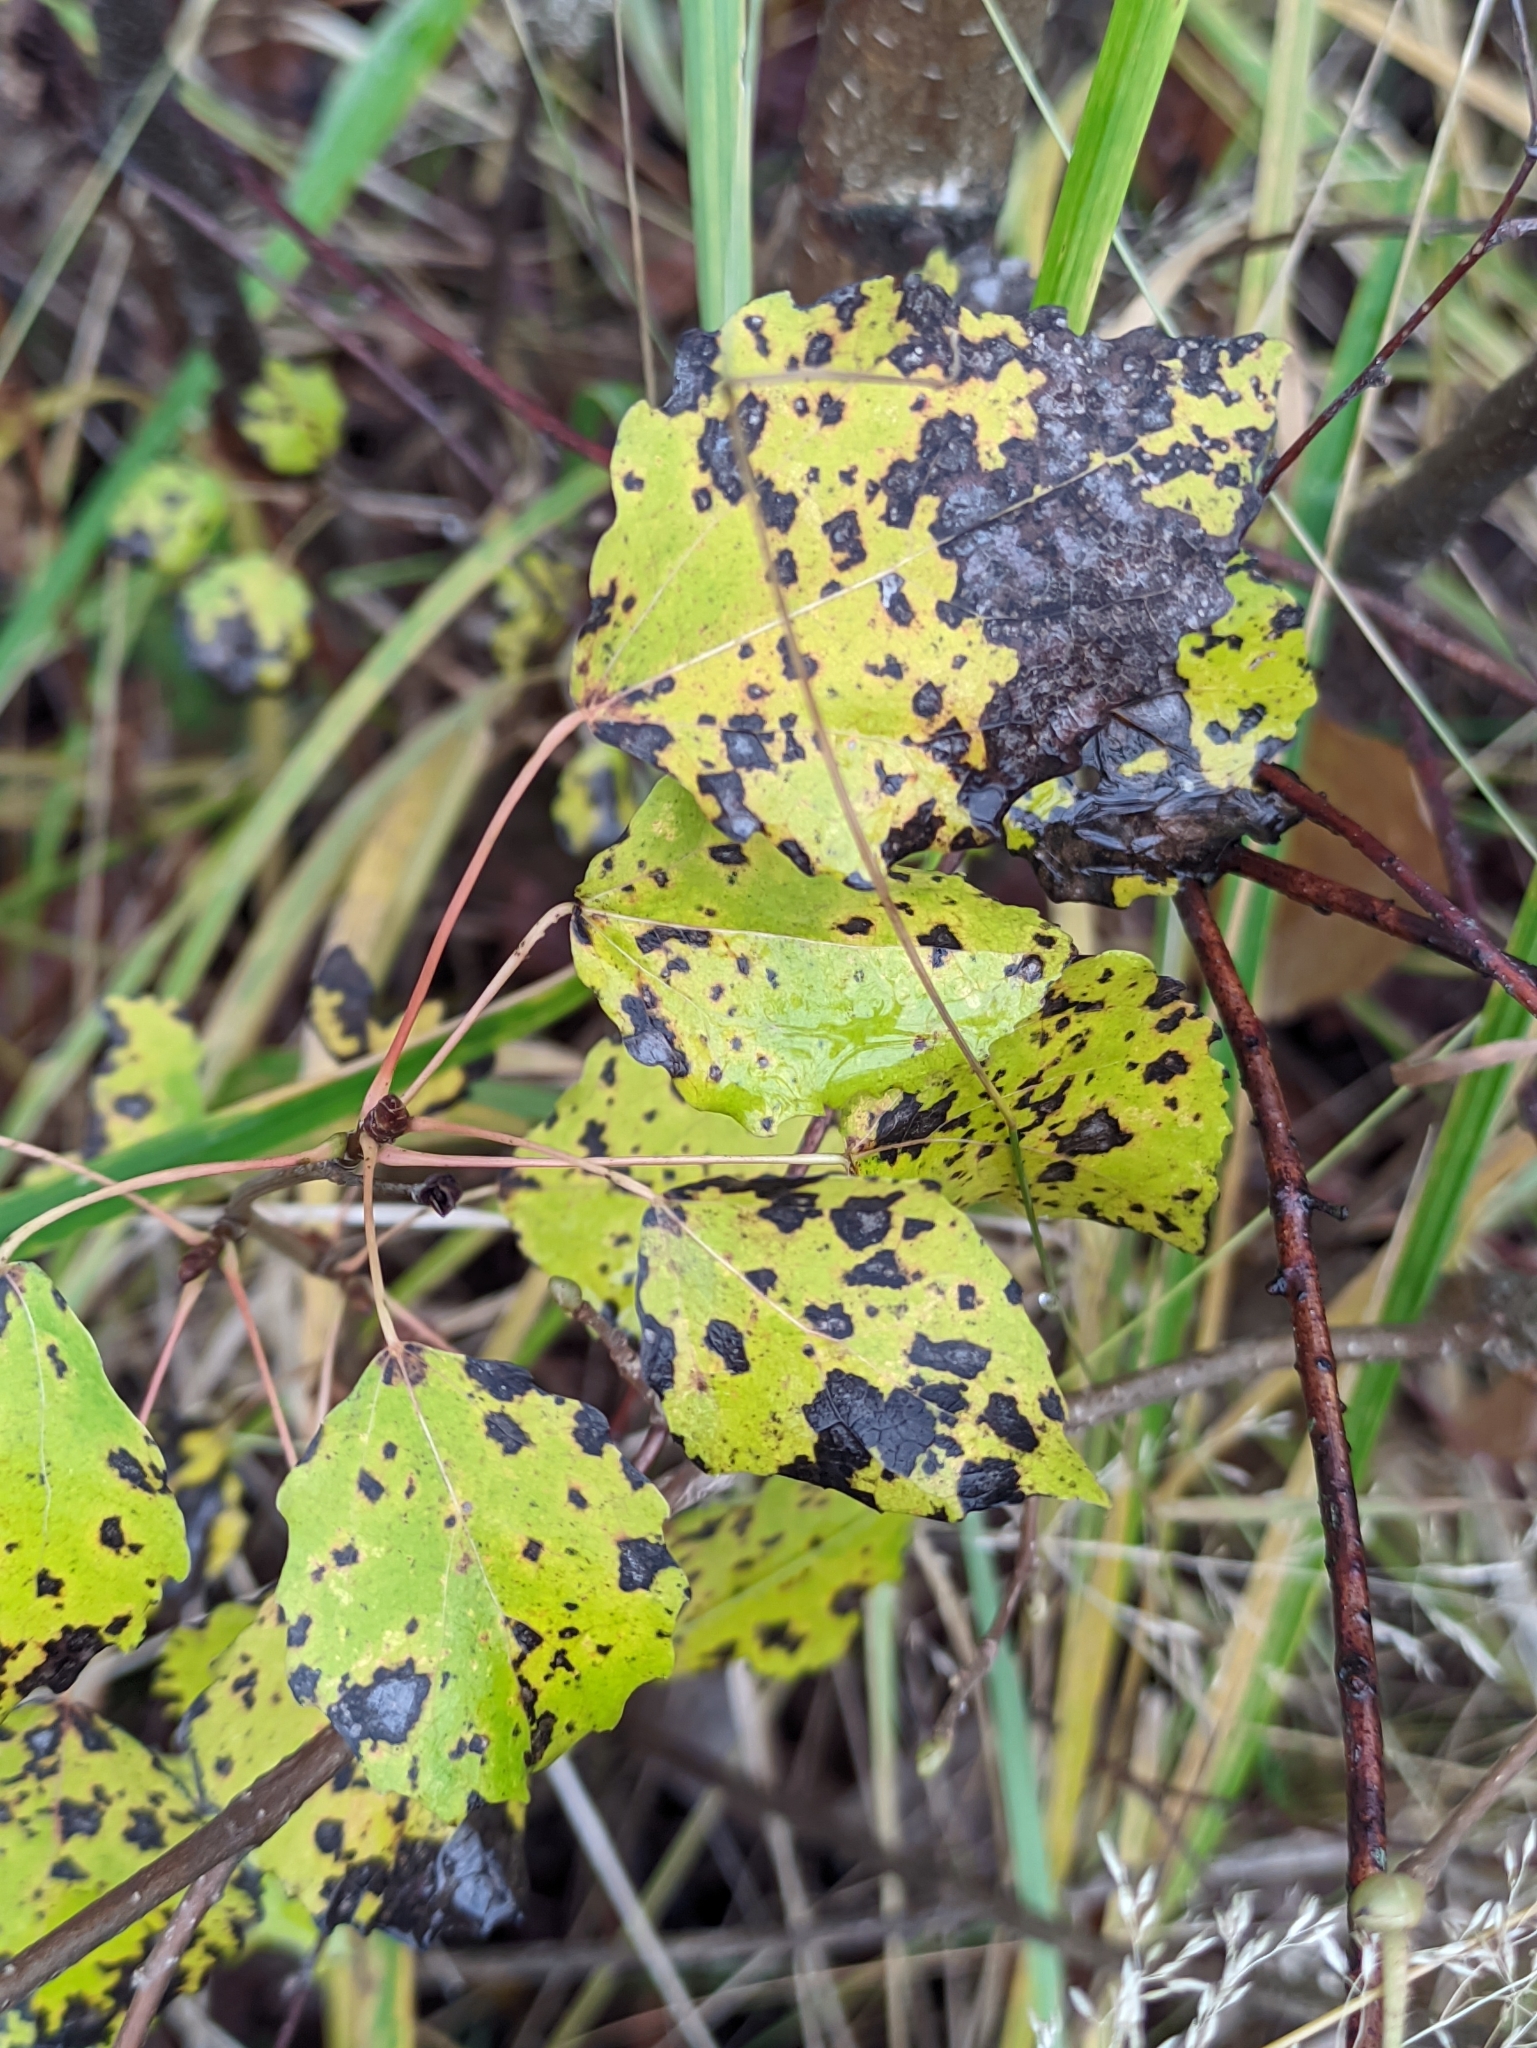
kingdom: Plantae
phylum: Tracheophyta
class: Magnoliopsida
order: Malpighiales
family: Salicaceae
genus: Populus
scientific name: Populus tremula
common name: European aspen
